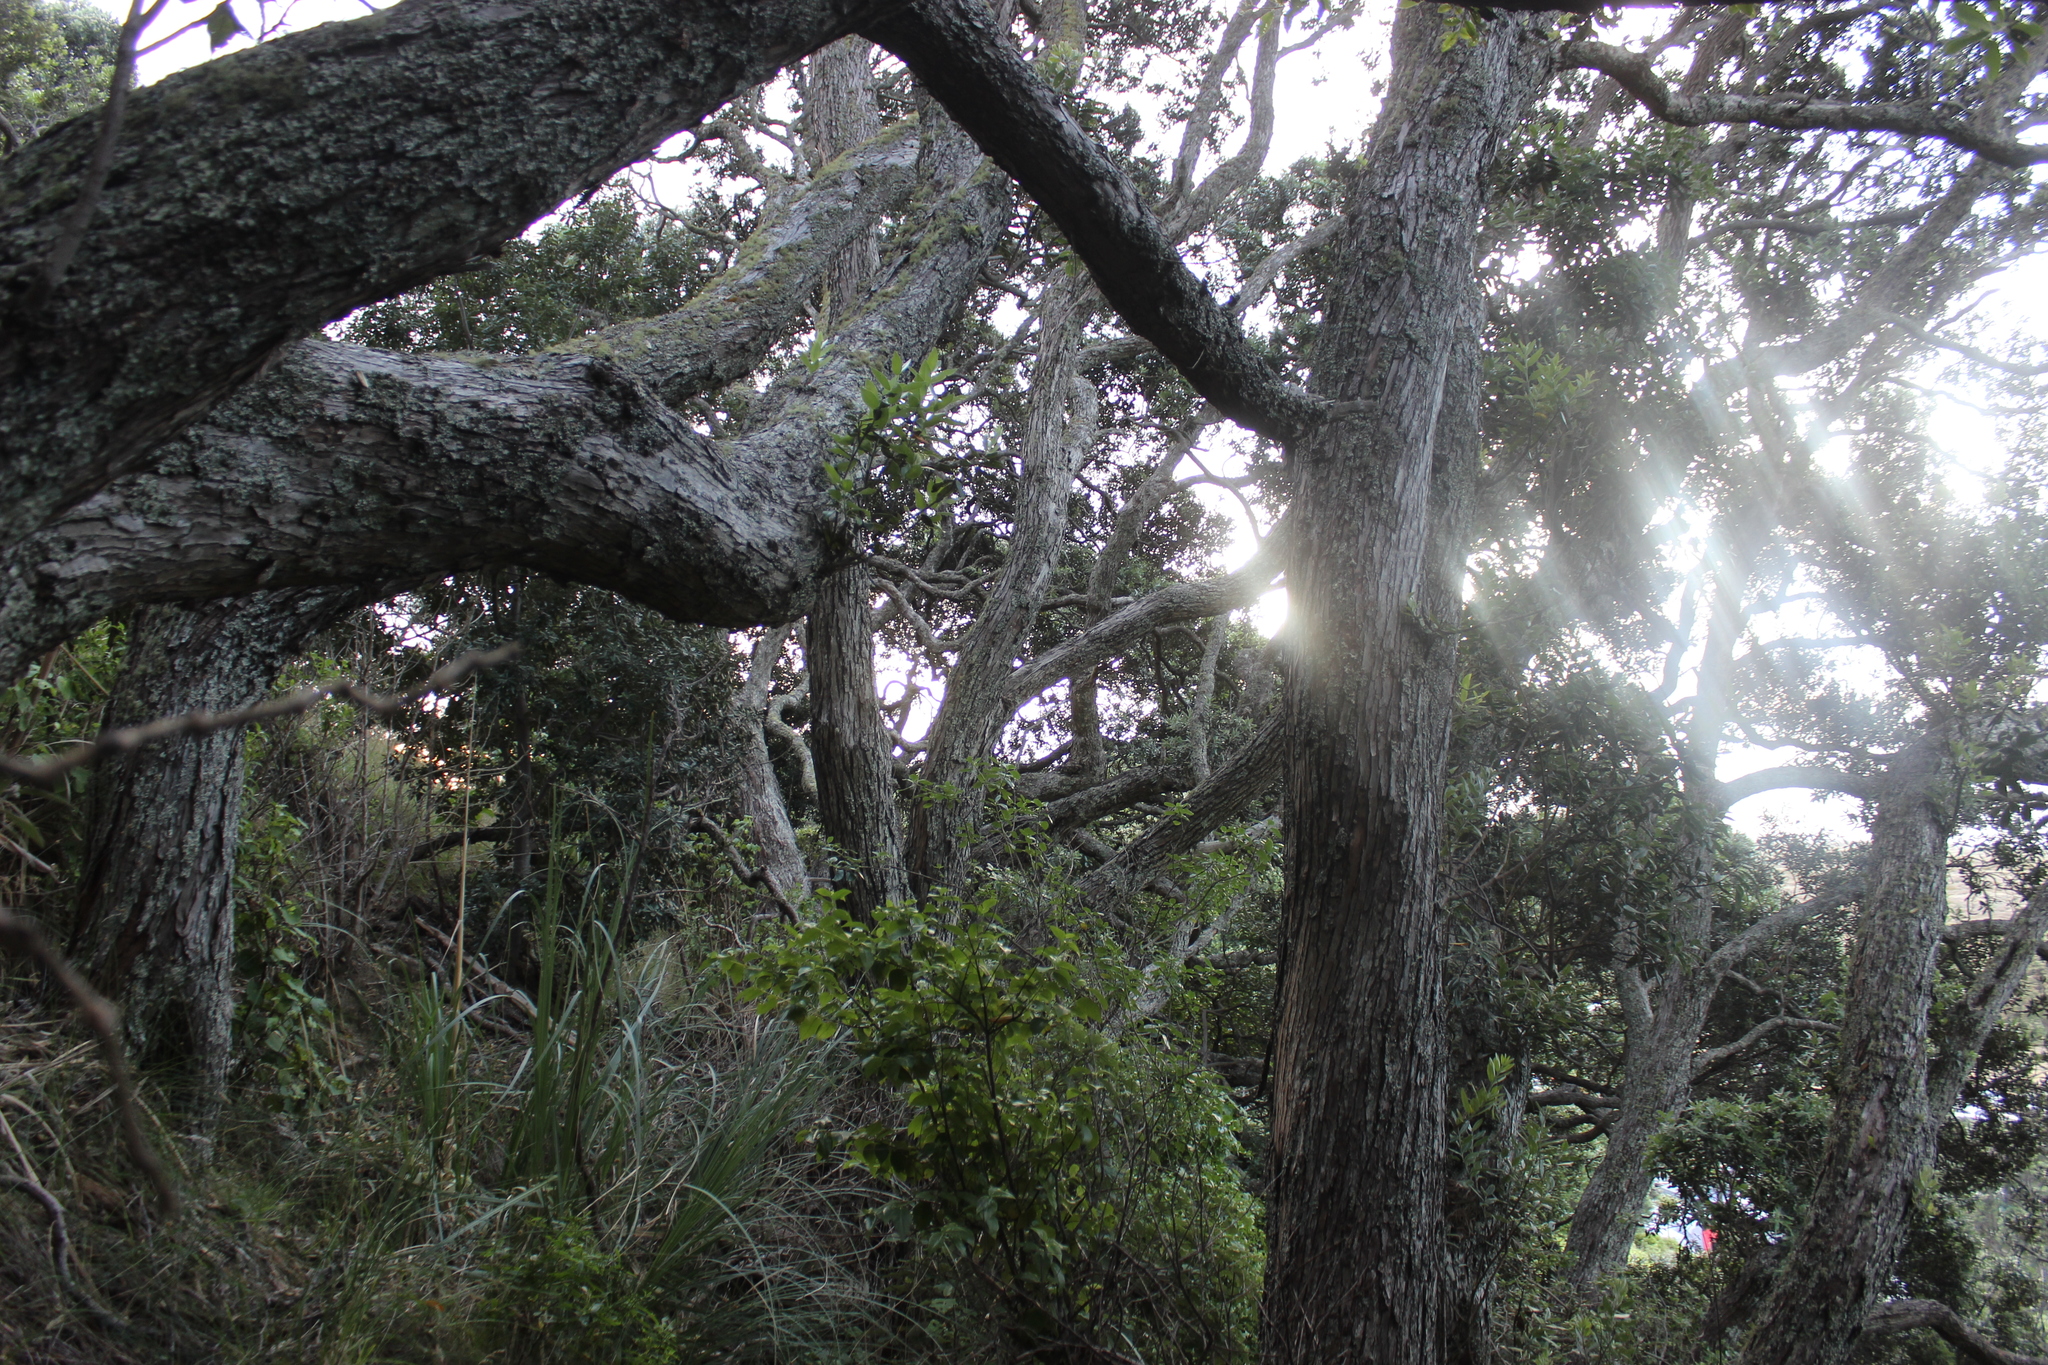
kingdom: Plantae
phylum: Tracheophyta
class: Magnoliopsida
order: Myrtales
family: Myrtaceae
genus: Metrosideros
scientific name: Metrosideros excelsa
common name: New zealand christmastree
